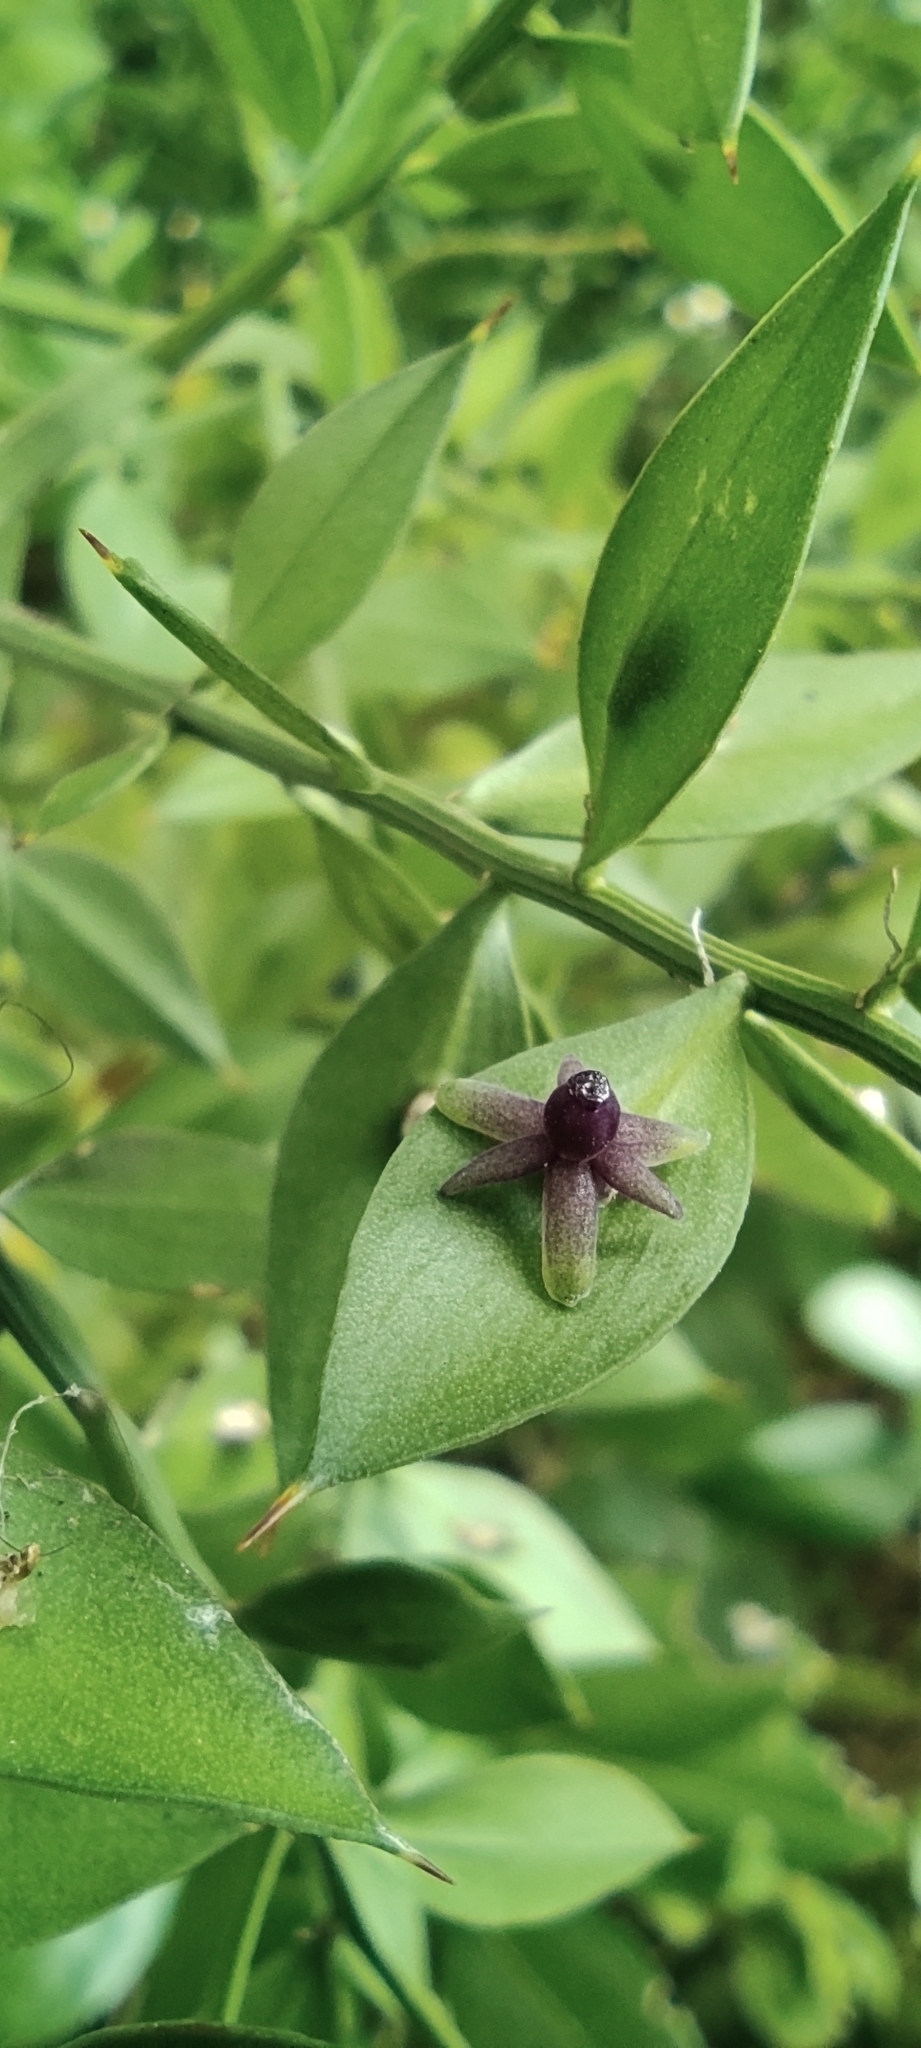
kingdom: Plantae
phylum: Tracheophyta
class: Liliopsida
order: Asparagales
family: Asparagaceae
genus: Ruscus
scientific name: Ruscus aculeatus
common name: Butcher's-broom
